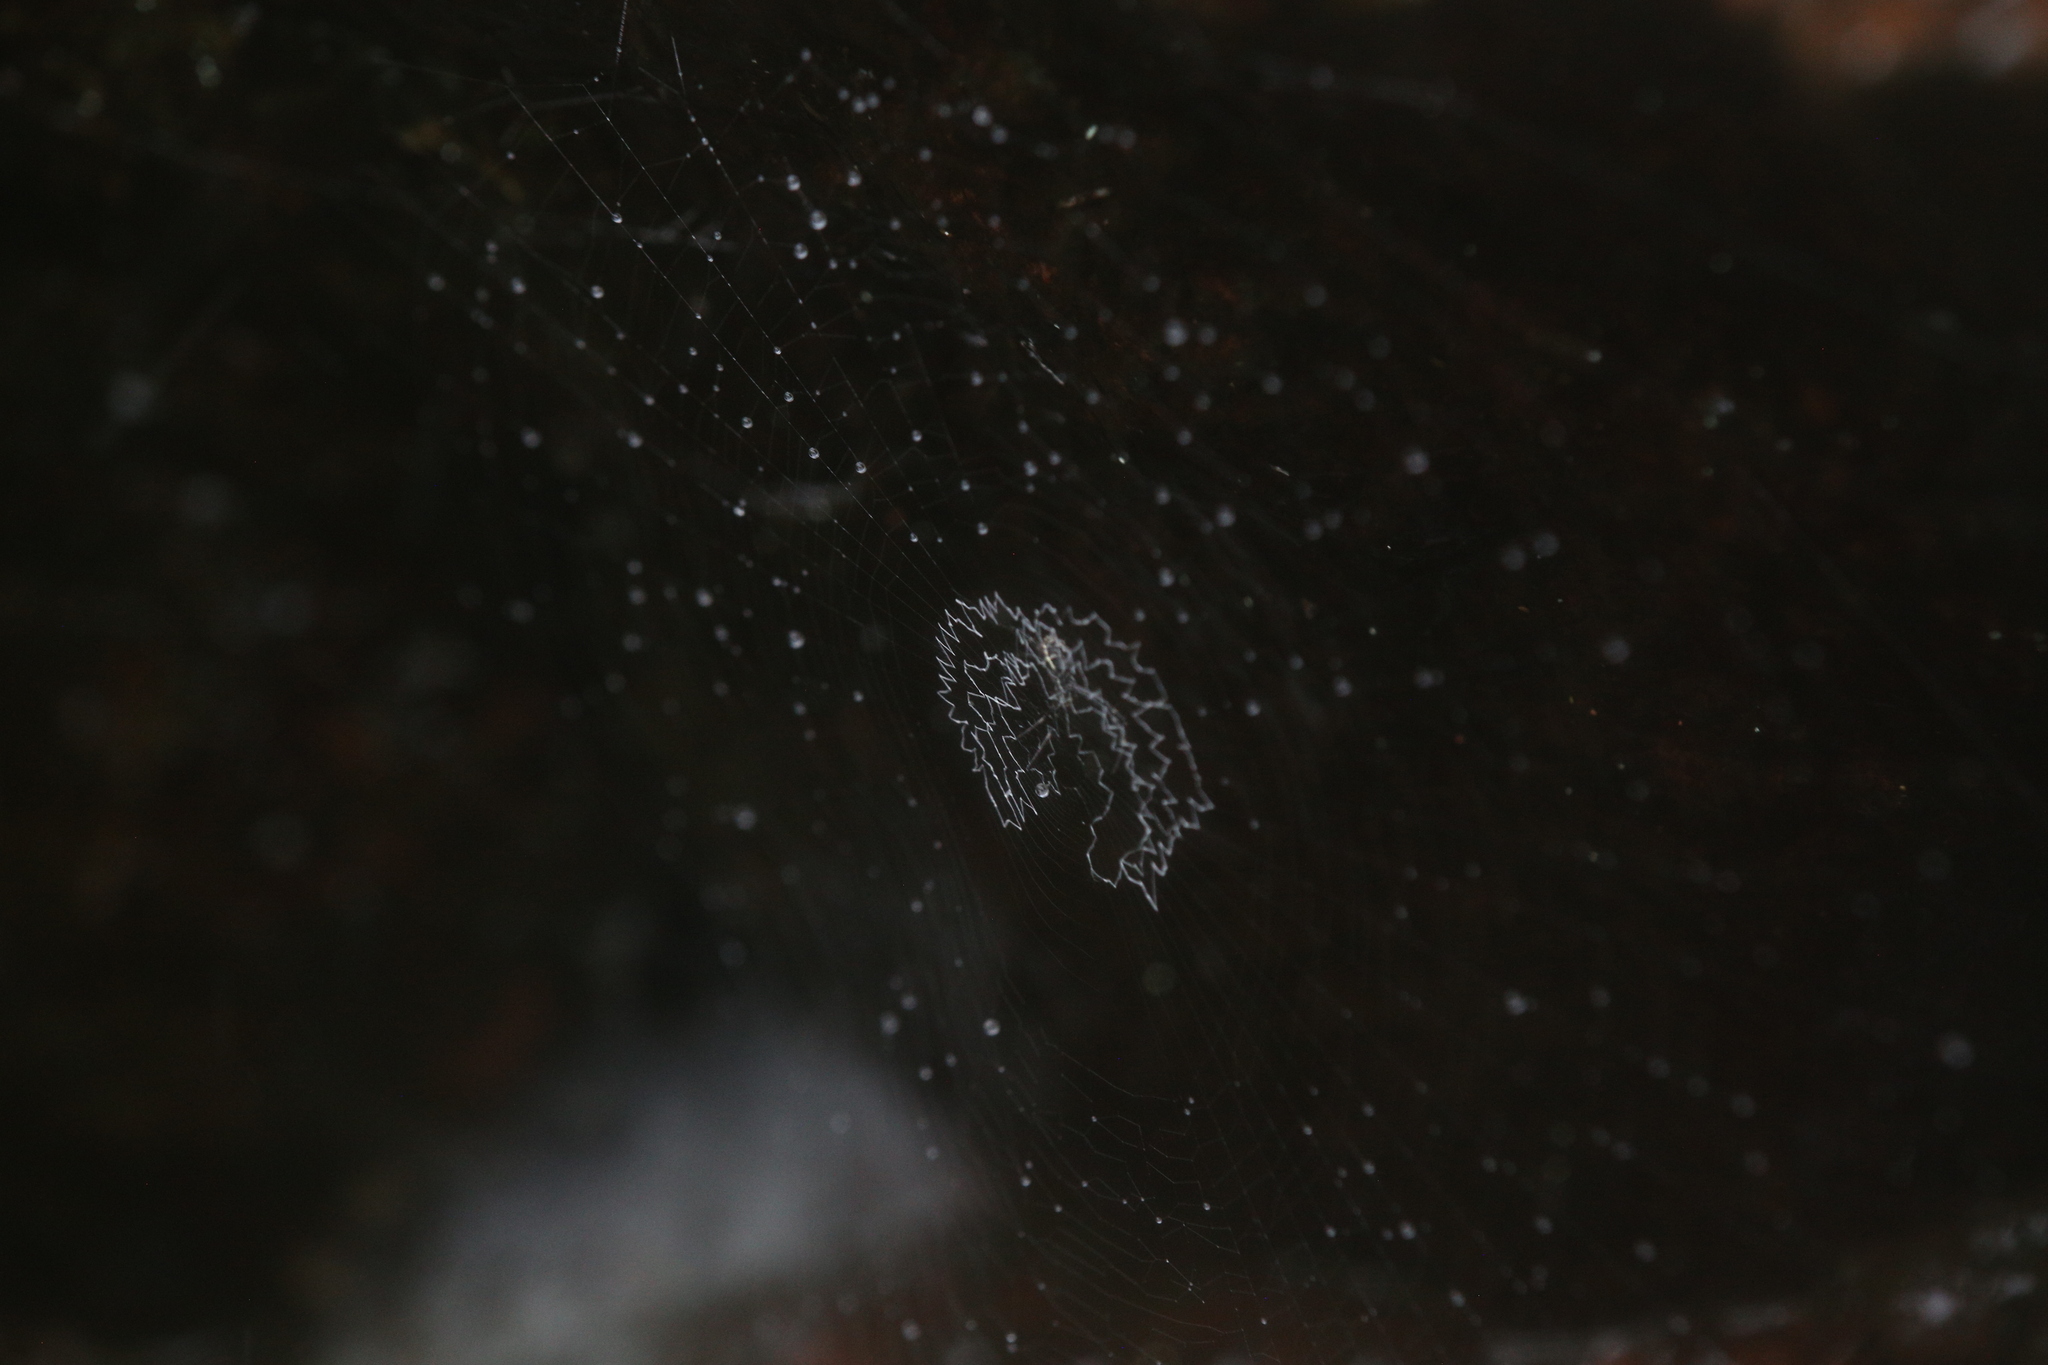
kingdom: Animalia
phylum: Arthropoda
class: Arachnida
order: Araneae
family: Araneidae
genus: Argiope
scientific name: Argiope katherina
